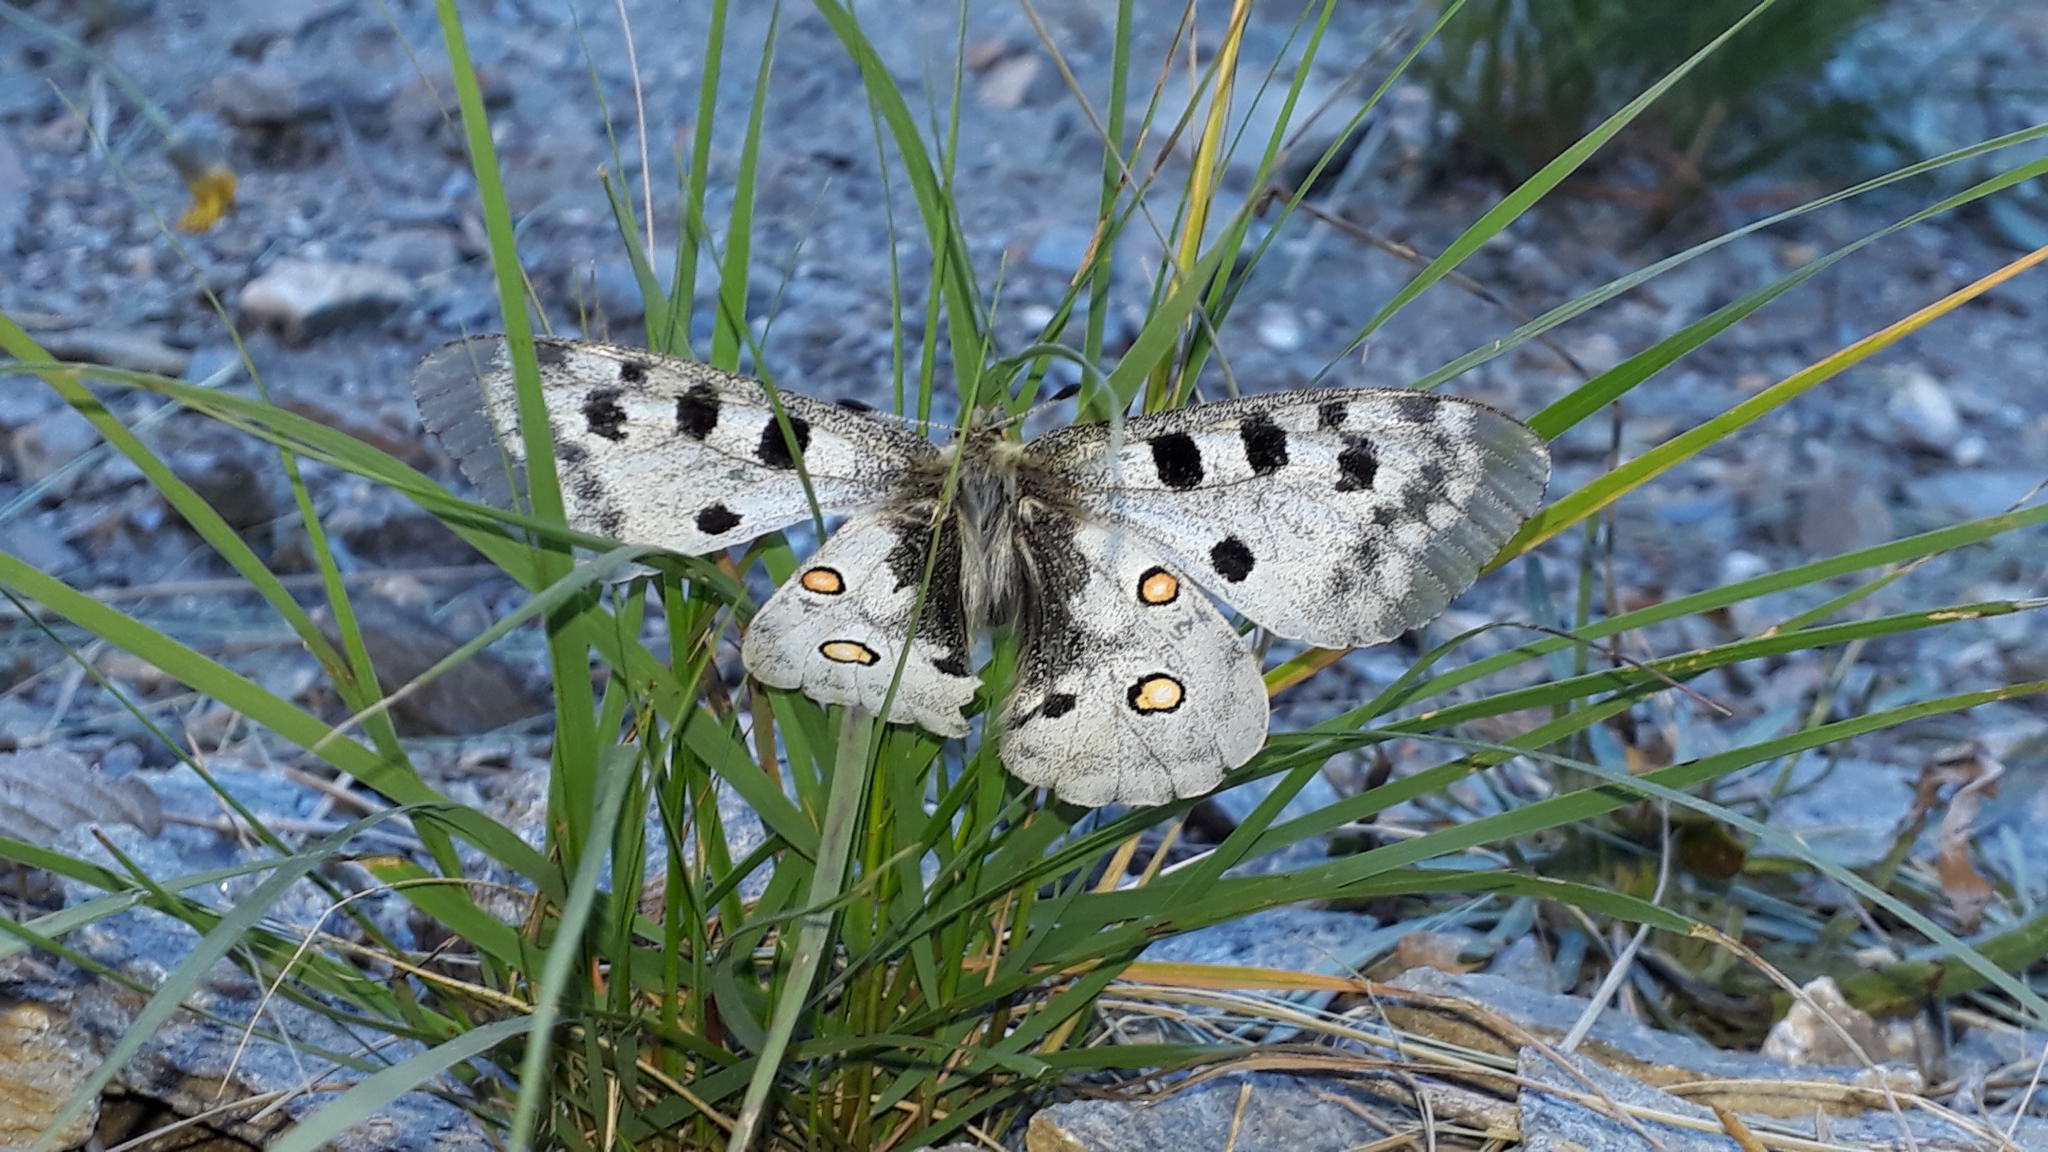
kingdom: Animalia
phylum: Arthropoda
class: Insecta
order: Lepidoptera
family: Papilionidae
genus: Parnassius
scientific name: Parnassius apollo
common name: Apollo
